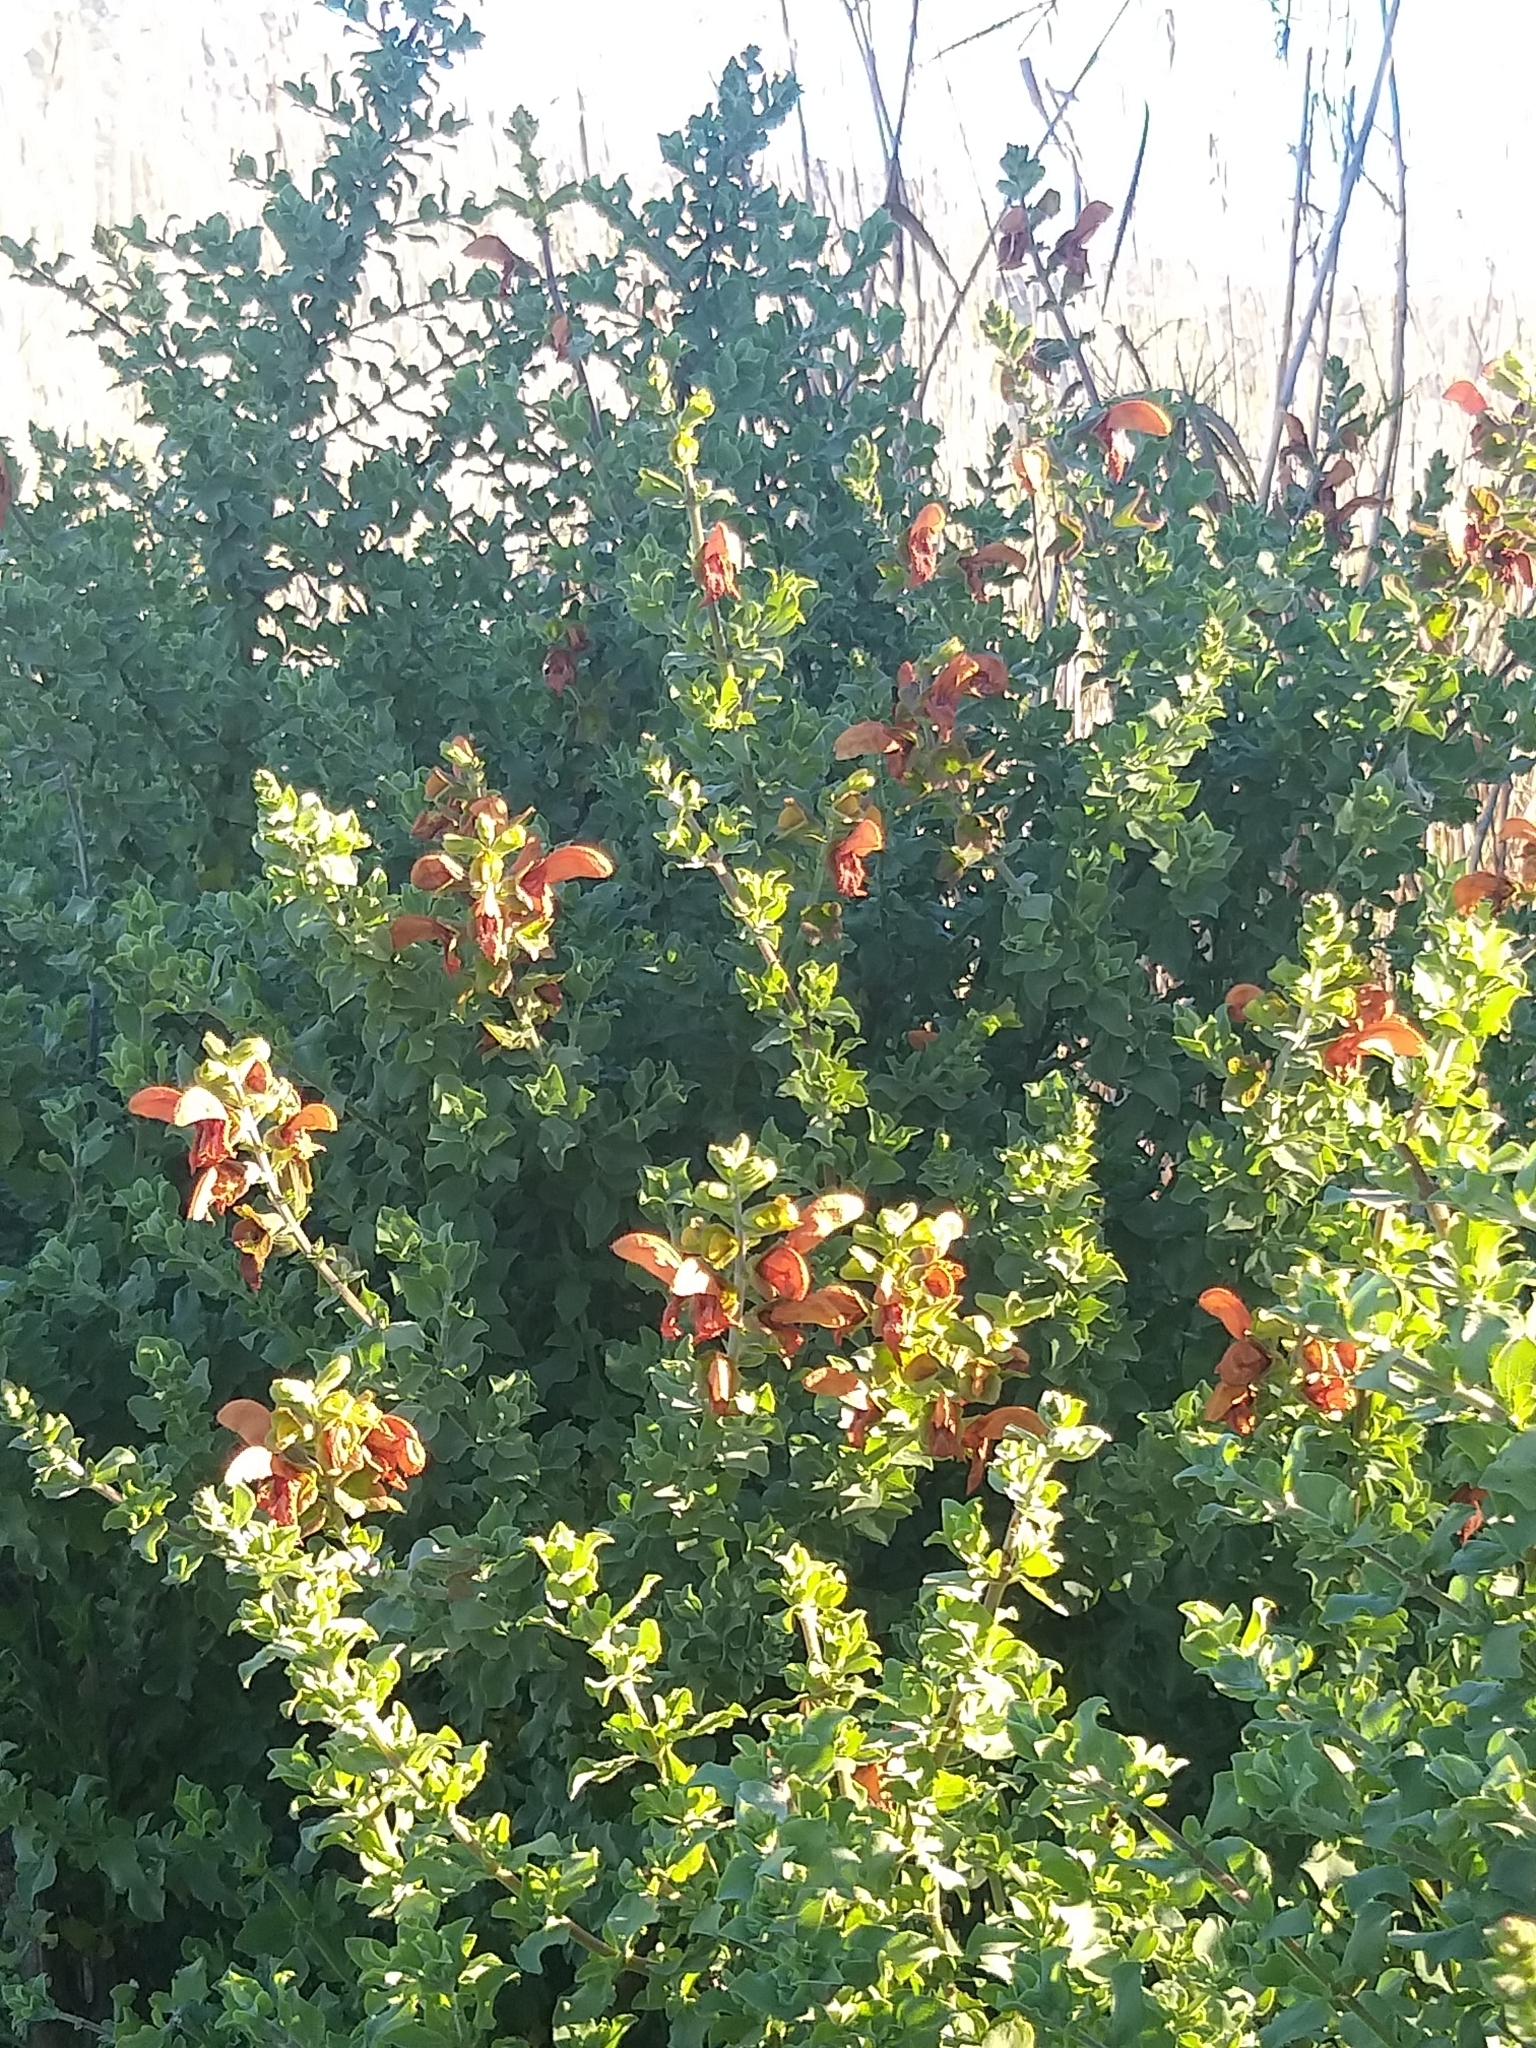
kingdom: Plantae
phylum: Tracheophyta
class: Magnoliopsida
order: Lamiales
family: Lamiaceae
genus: Salvia
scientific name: Salvia aurea
